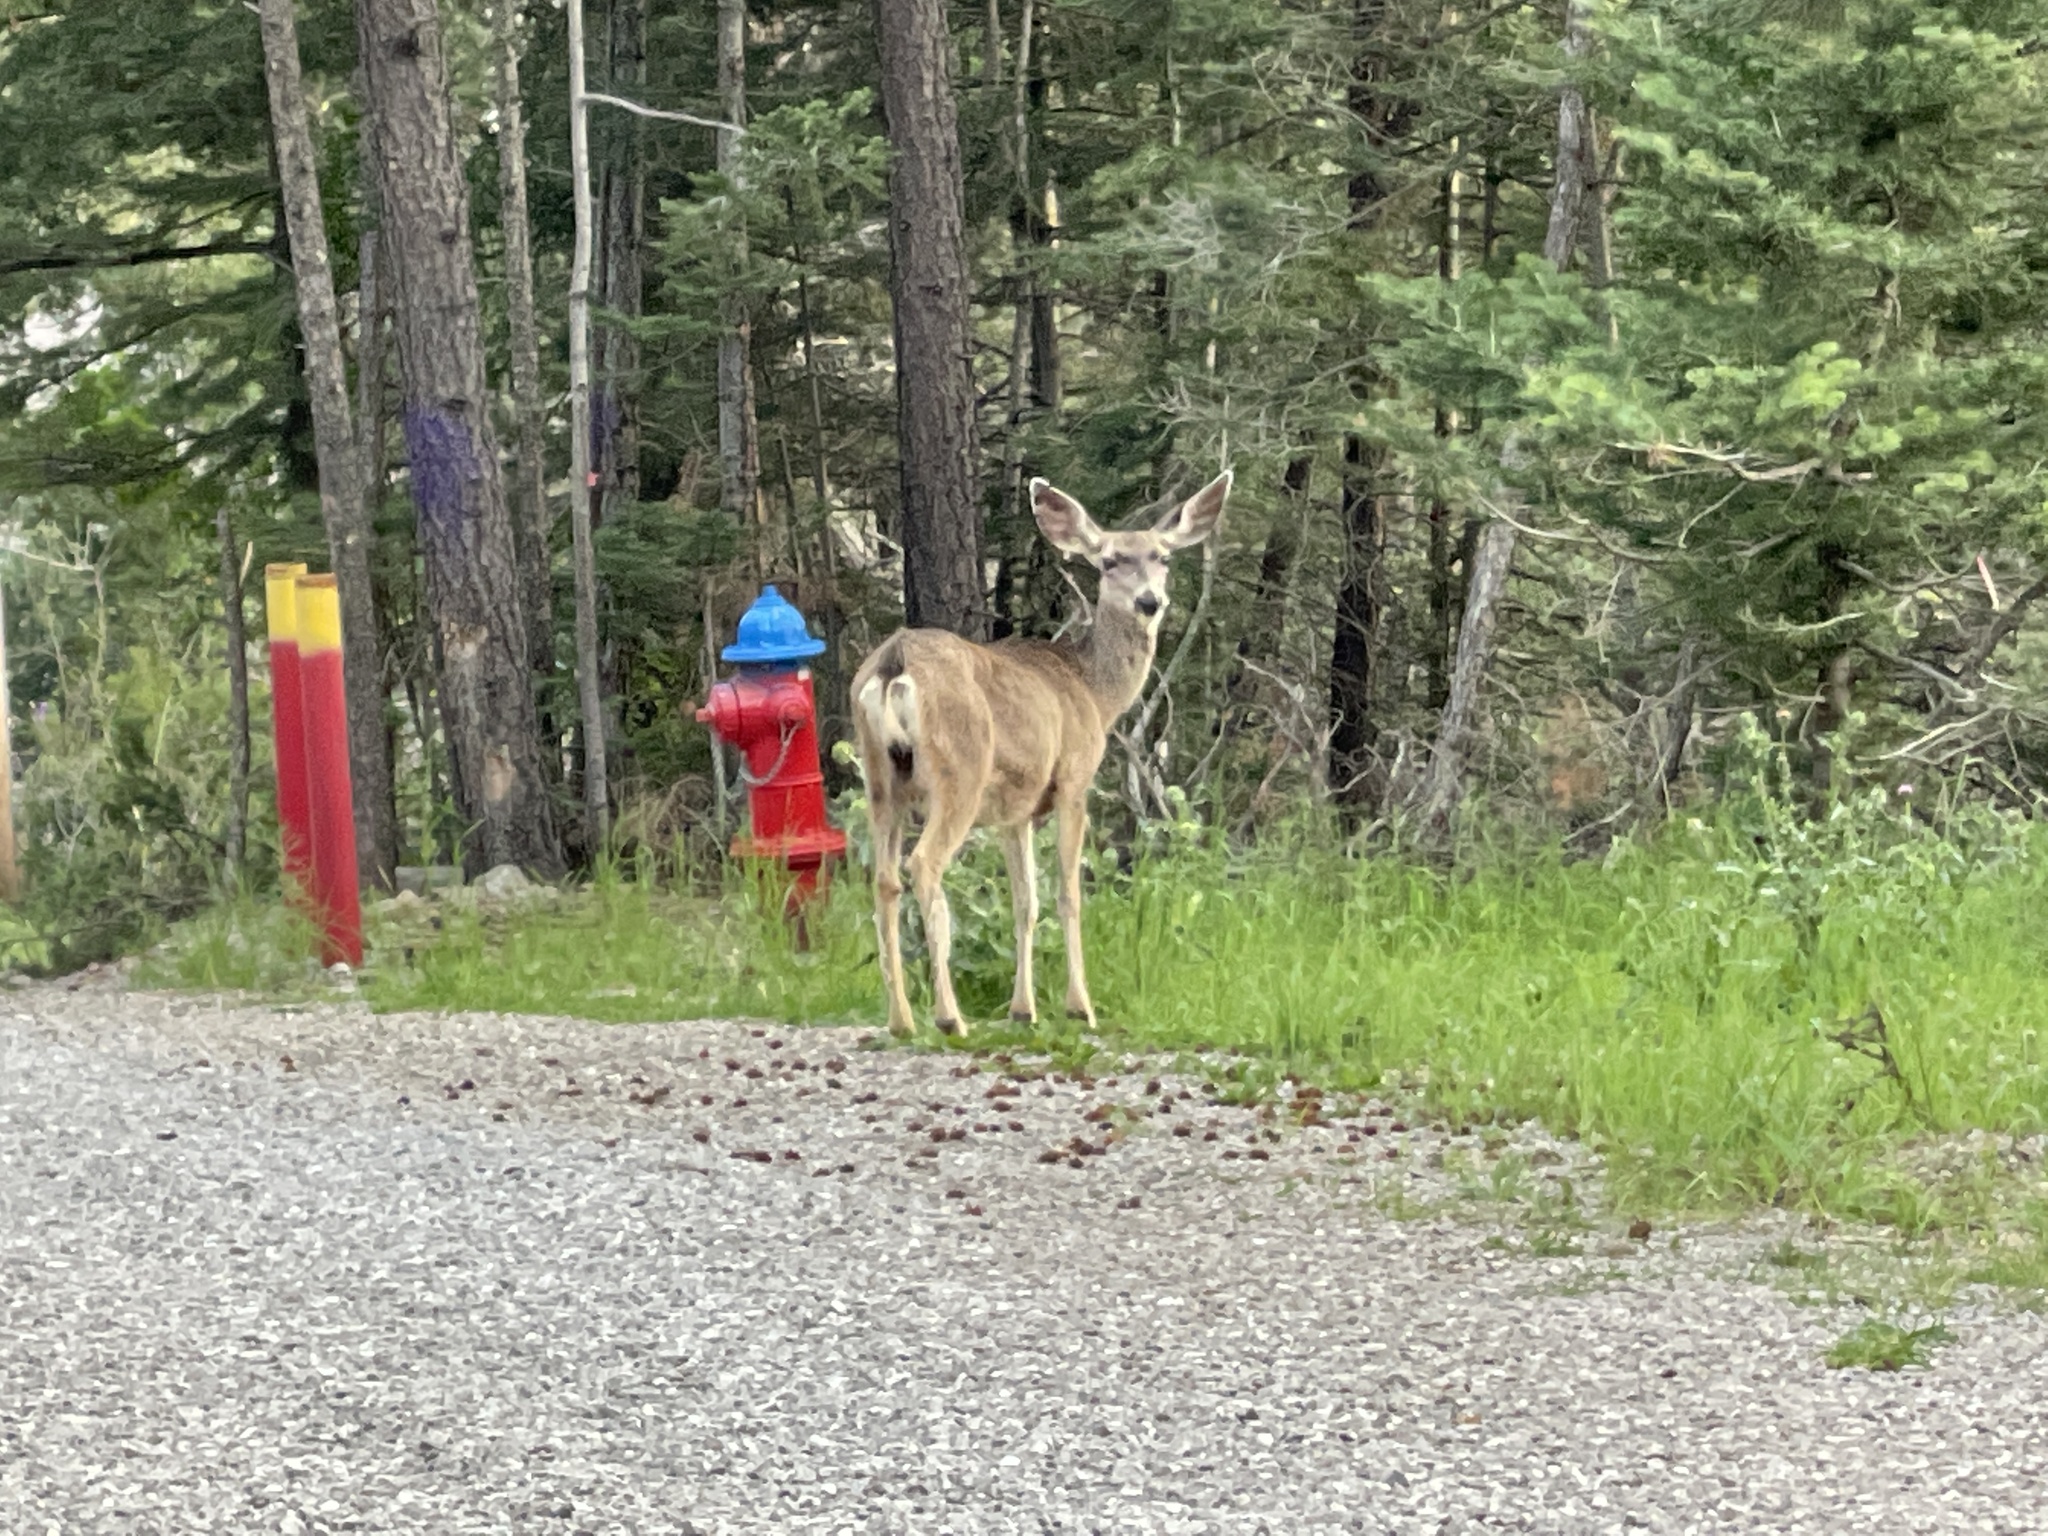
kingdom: Animalia
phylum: Chordata
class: Mammalia
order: Artiodactyla
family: Cervidae
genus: Odocoileus
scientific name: Odocoileus hemionus
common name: Mule deer
